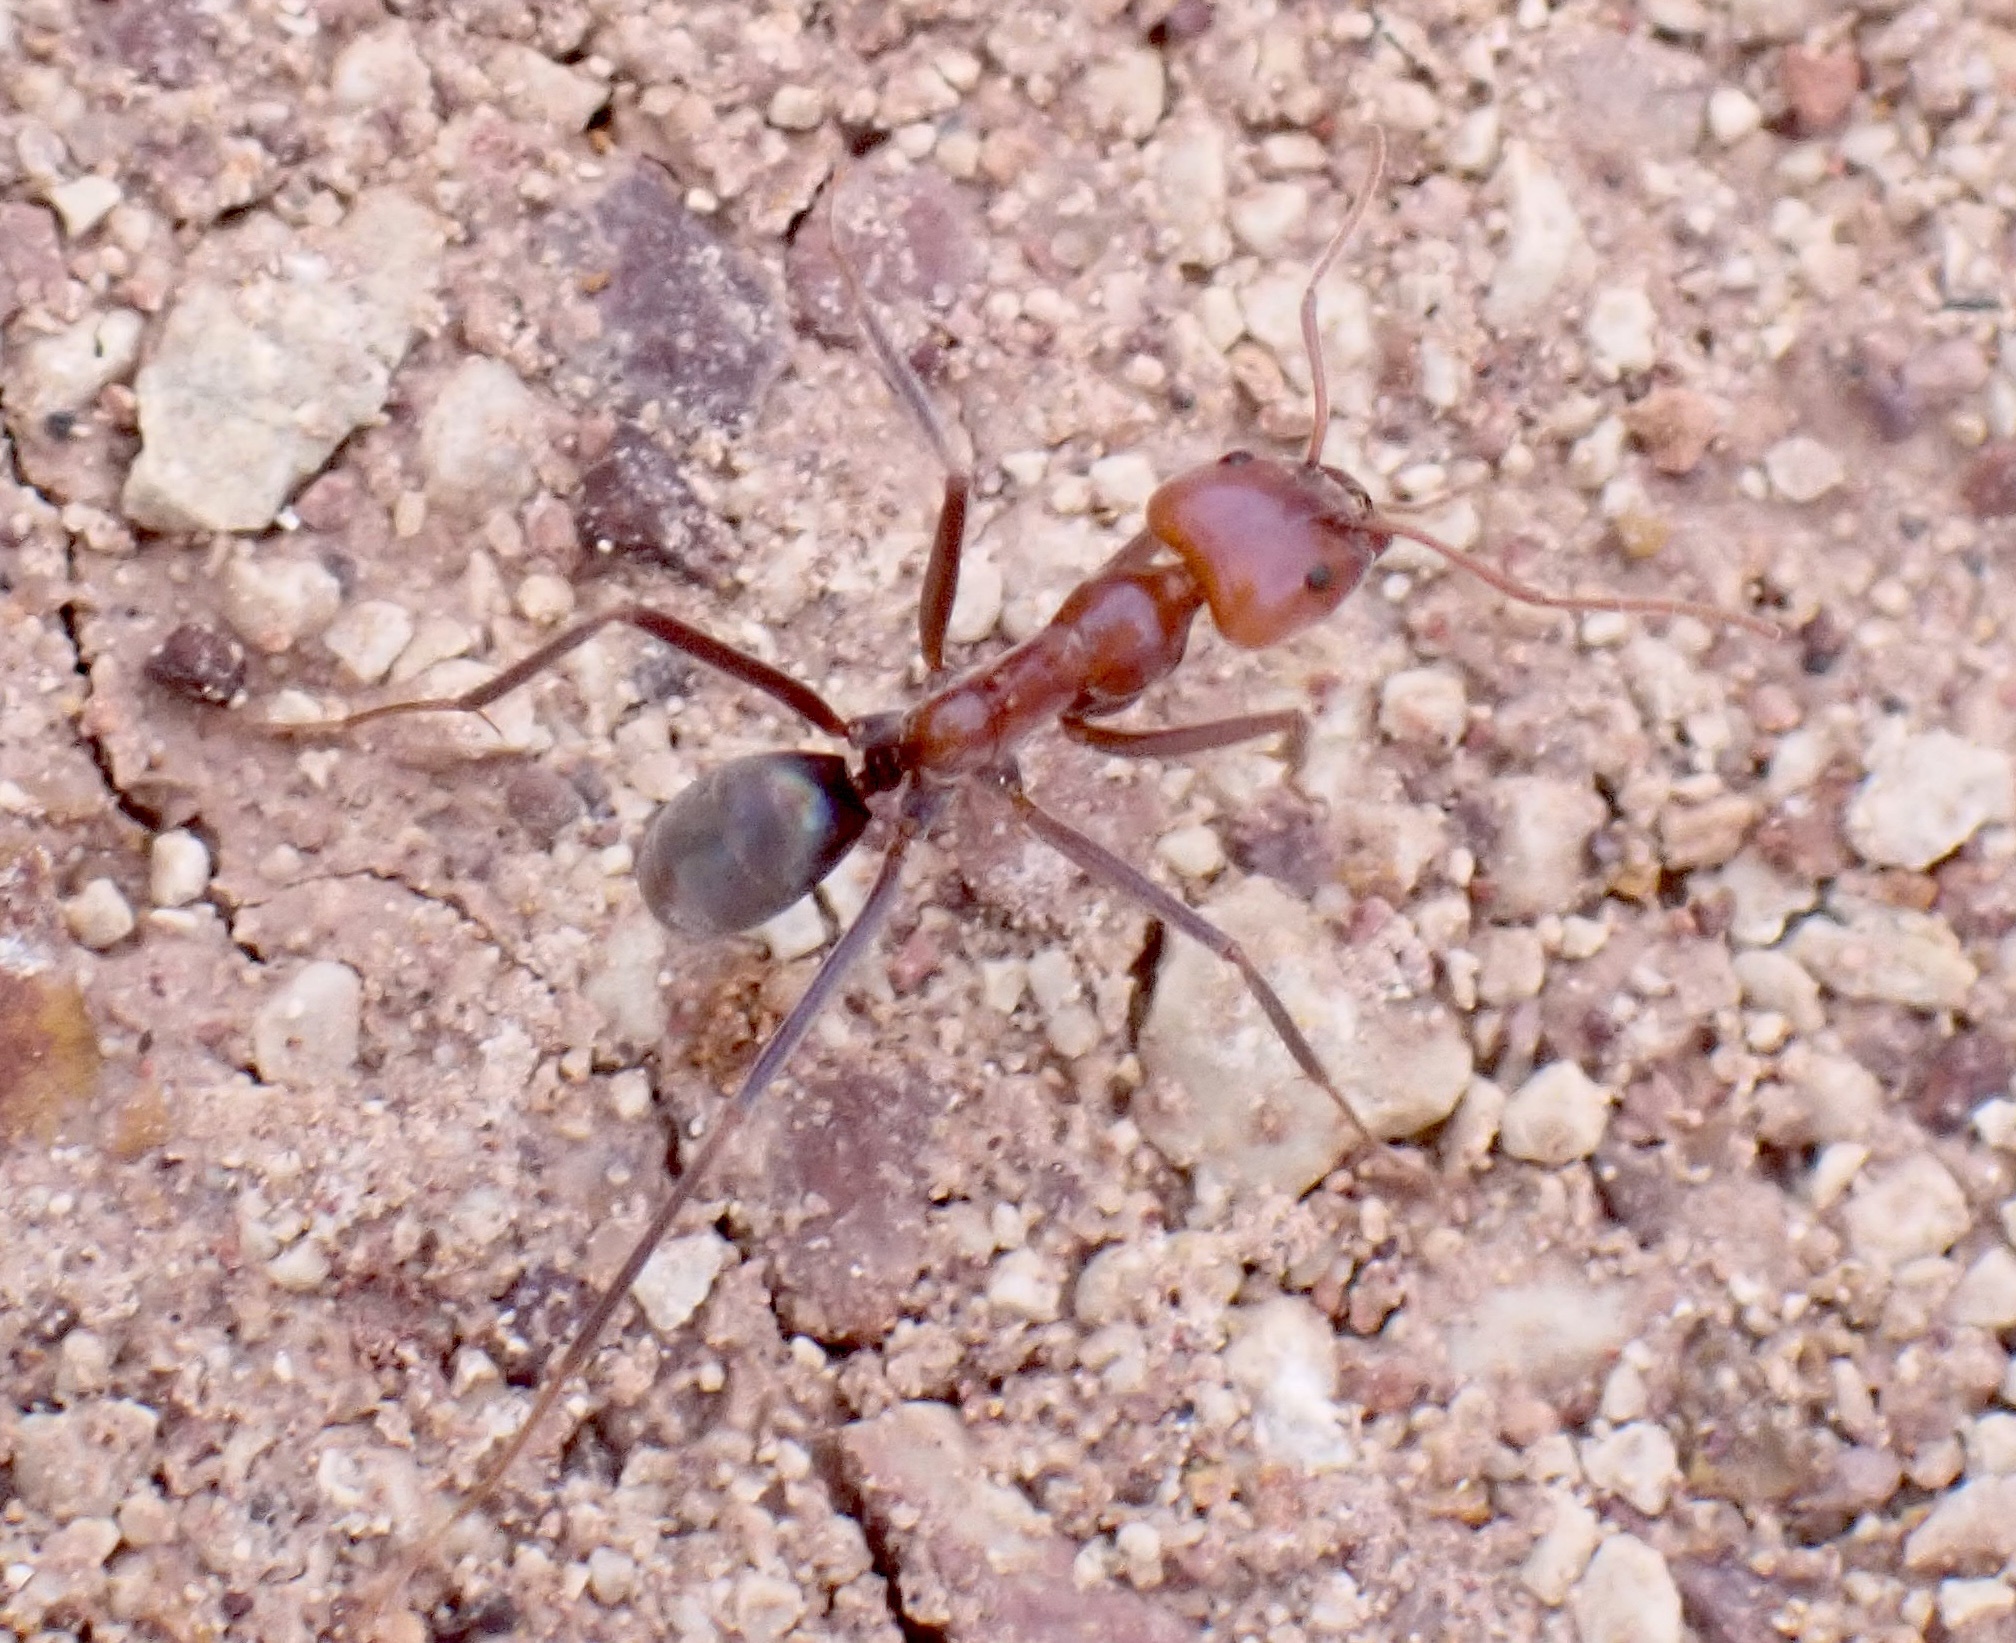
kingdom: Animalia
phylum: Arthropoda
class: Insecta
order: Hymenoptera
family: Formicidae
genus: Iridomyrmex
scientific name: Iridomyrmex purpureus
